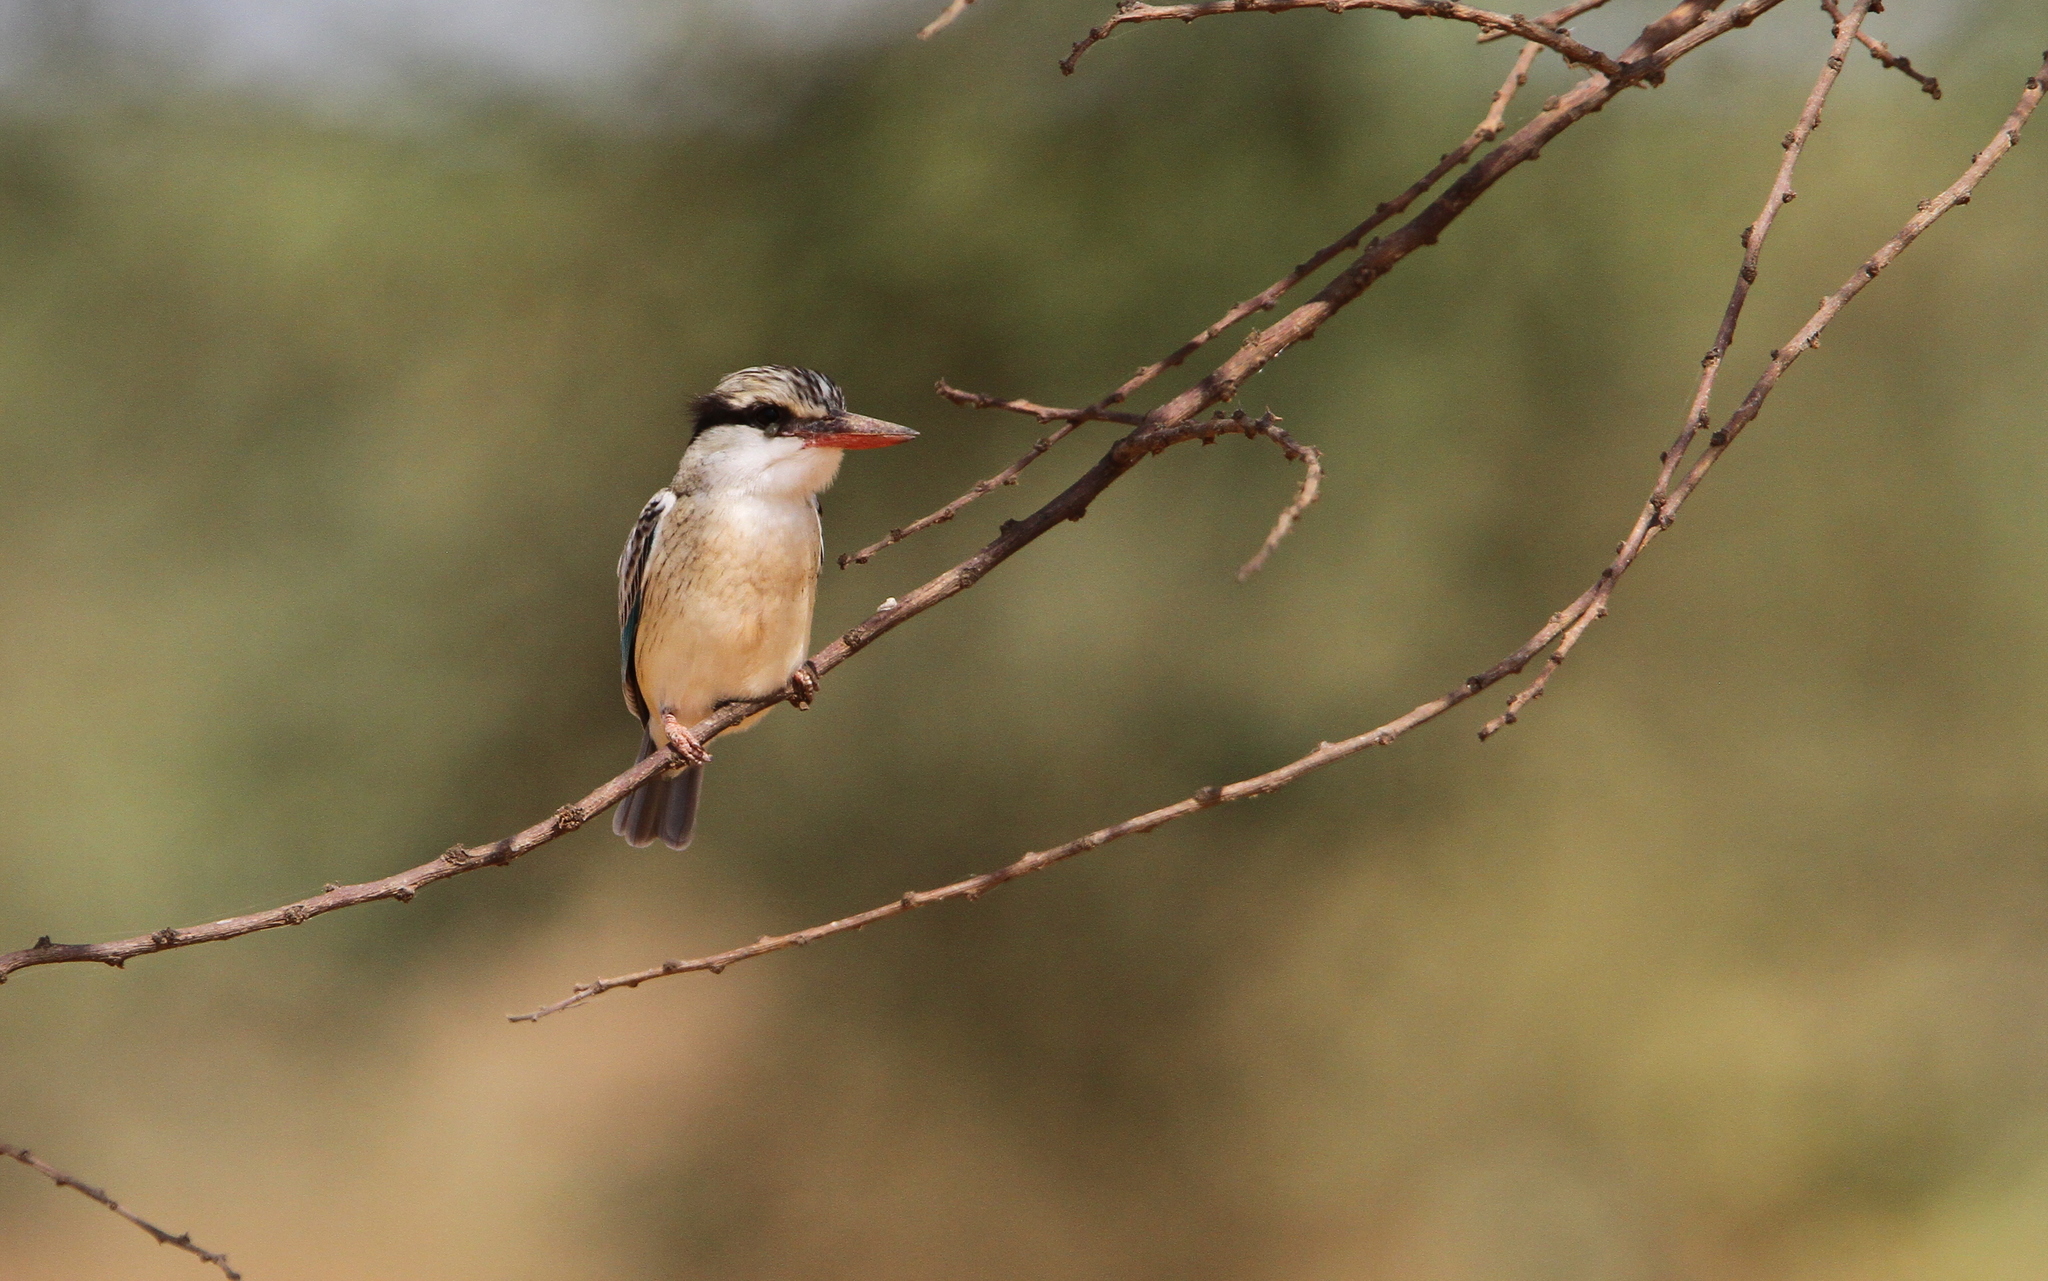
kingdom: Animalia
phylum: Chordata
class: Aves
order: Coraciiformes
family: Alcedinidae
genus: Halcyon
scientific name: Halcyon chelicuti
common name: Striped kingfisher
